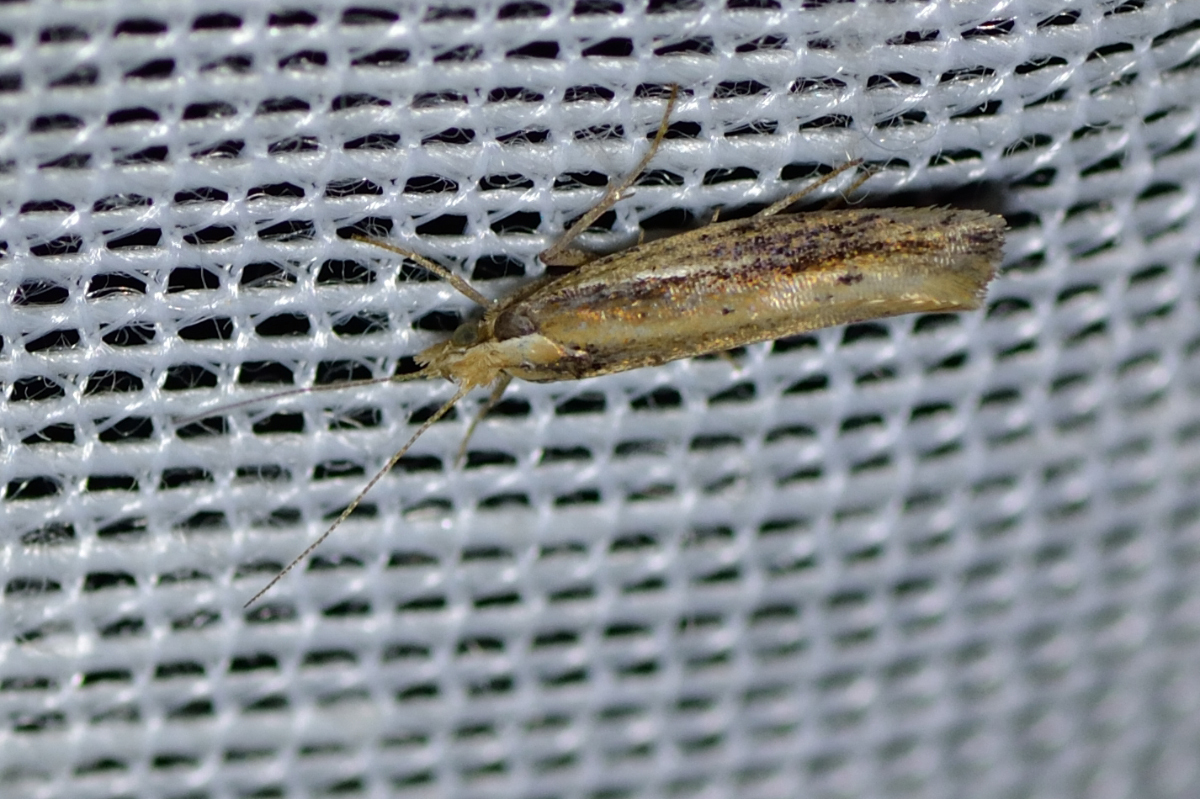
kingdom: Animalia
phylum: Arthropoda
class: Insecta
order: Lepidoptera
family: Ypsolophidae
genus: Ypsolopha
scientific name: Ypsolopha parenthesella
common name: White-shouldered smudge
